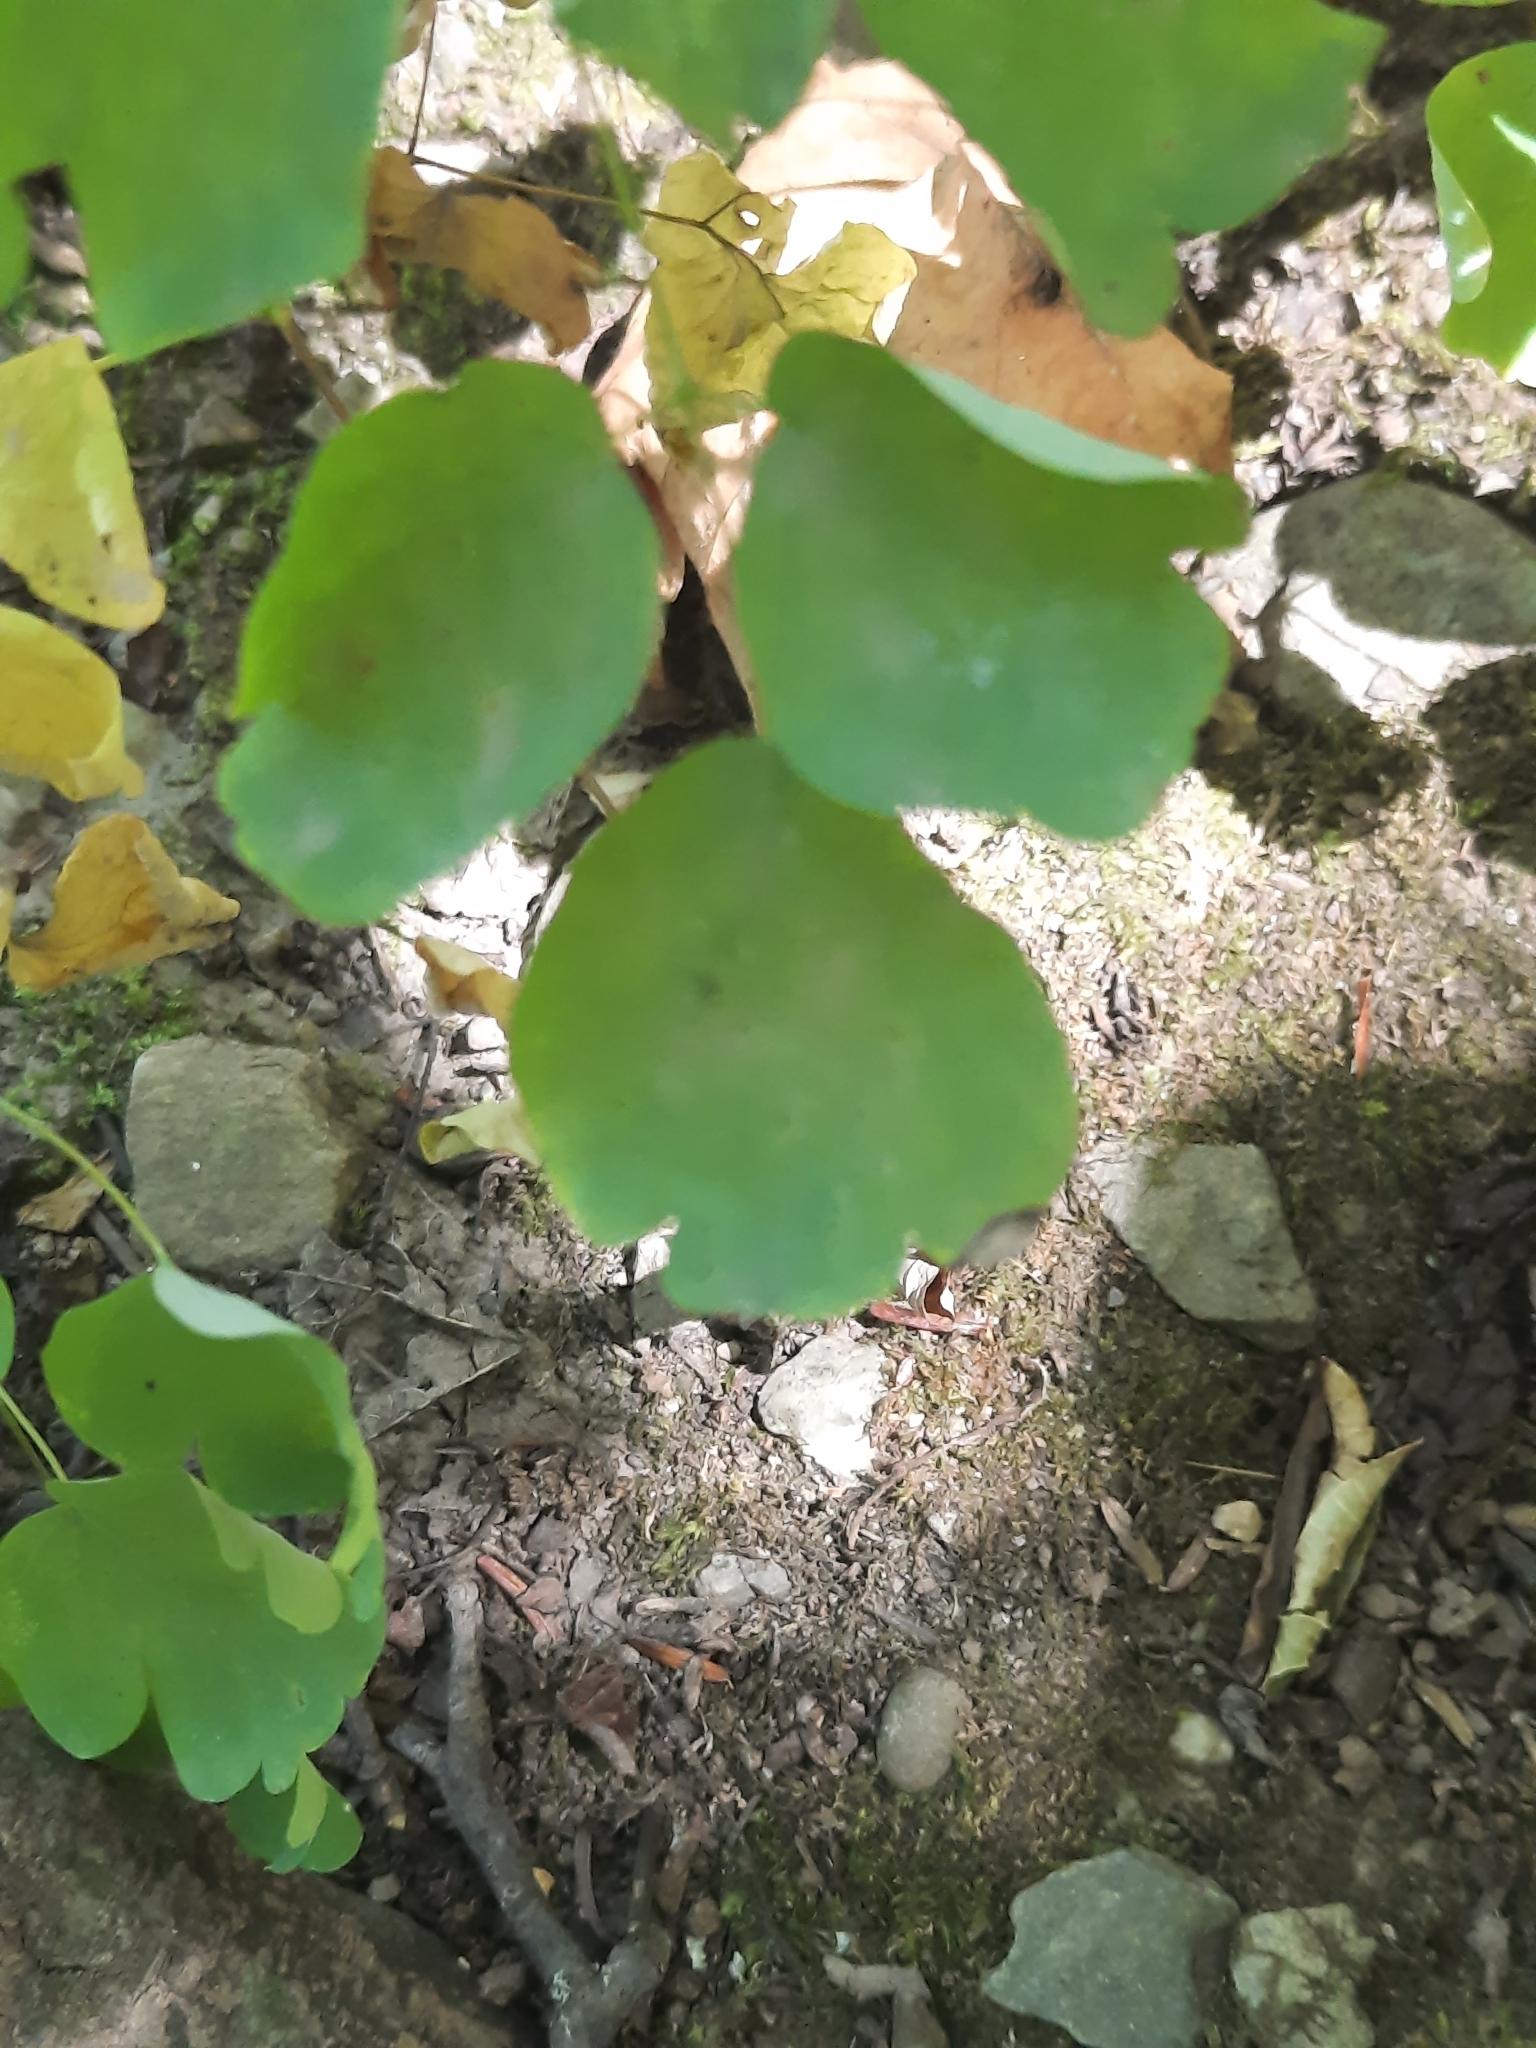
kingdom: Plantae
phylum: Tracheophyta
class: Magnoliopsida
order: Ranunculales
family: Ranunculaceae
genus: Thalictrum
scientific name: Thalictrum pubescens
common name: King-of-the-meadow
